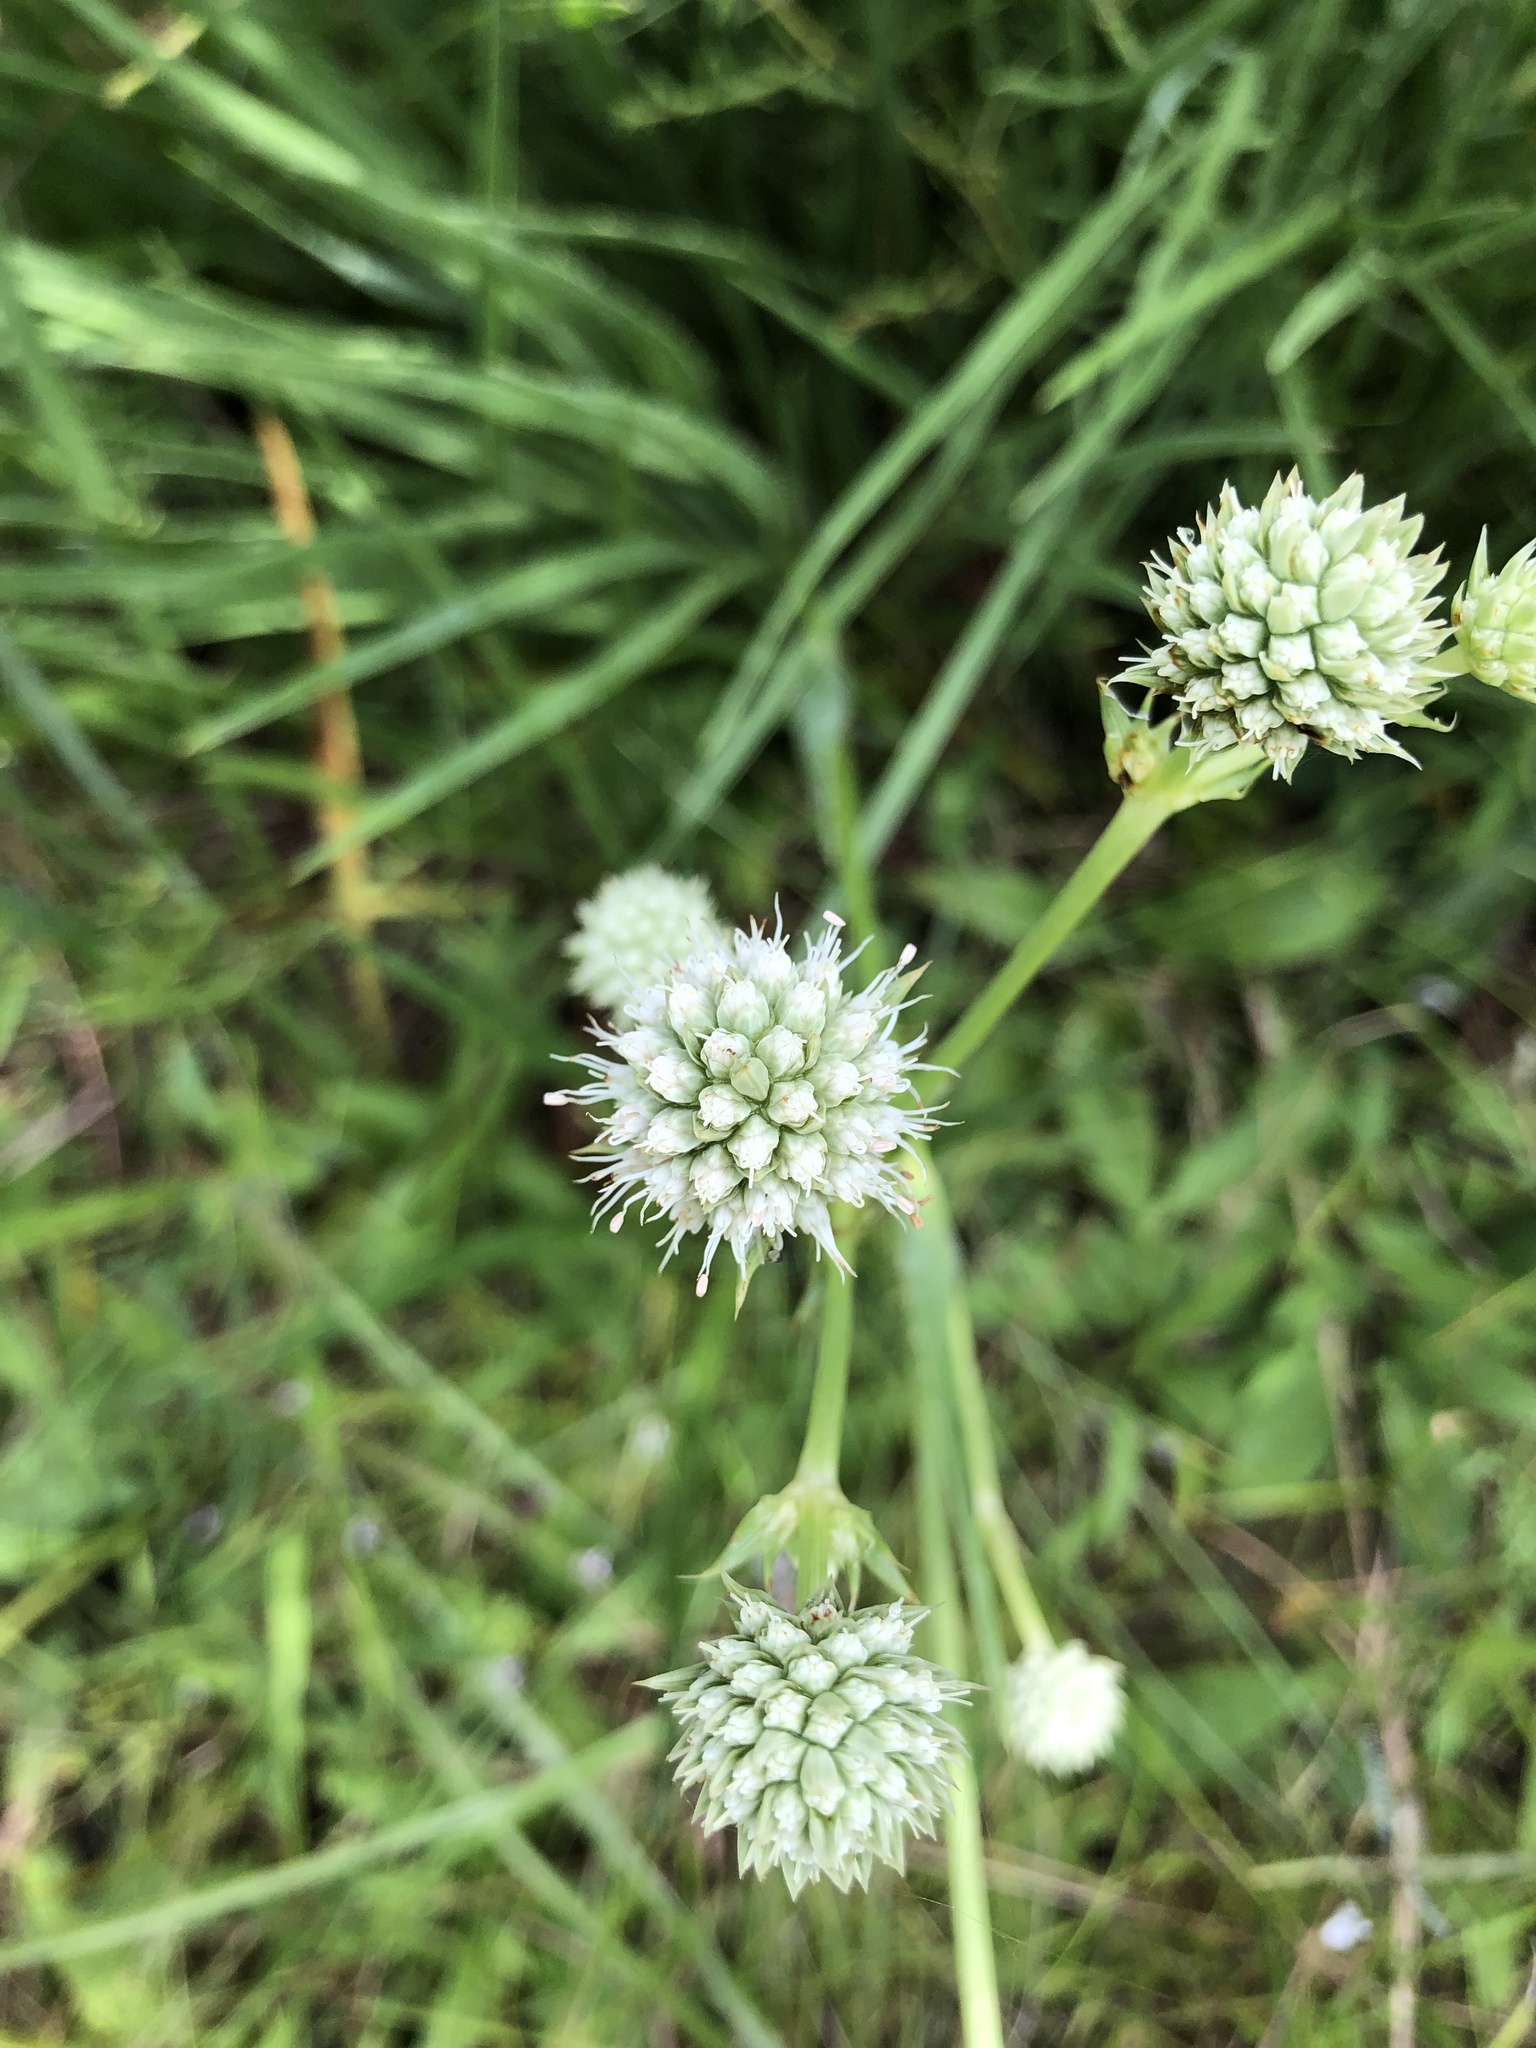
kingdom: Plantae
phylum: Tracheophyta
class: Magnoliopsida
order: Apiales
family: Apiaceae
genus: Eryngium
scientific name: Eryngium yuccifolium
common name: Button eryngo
